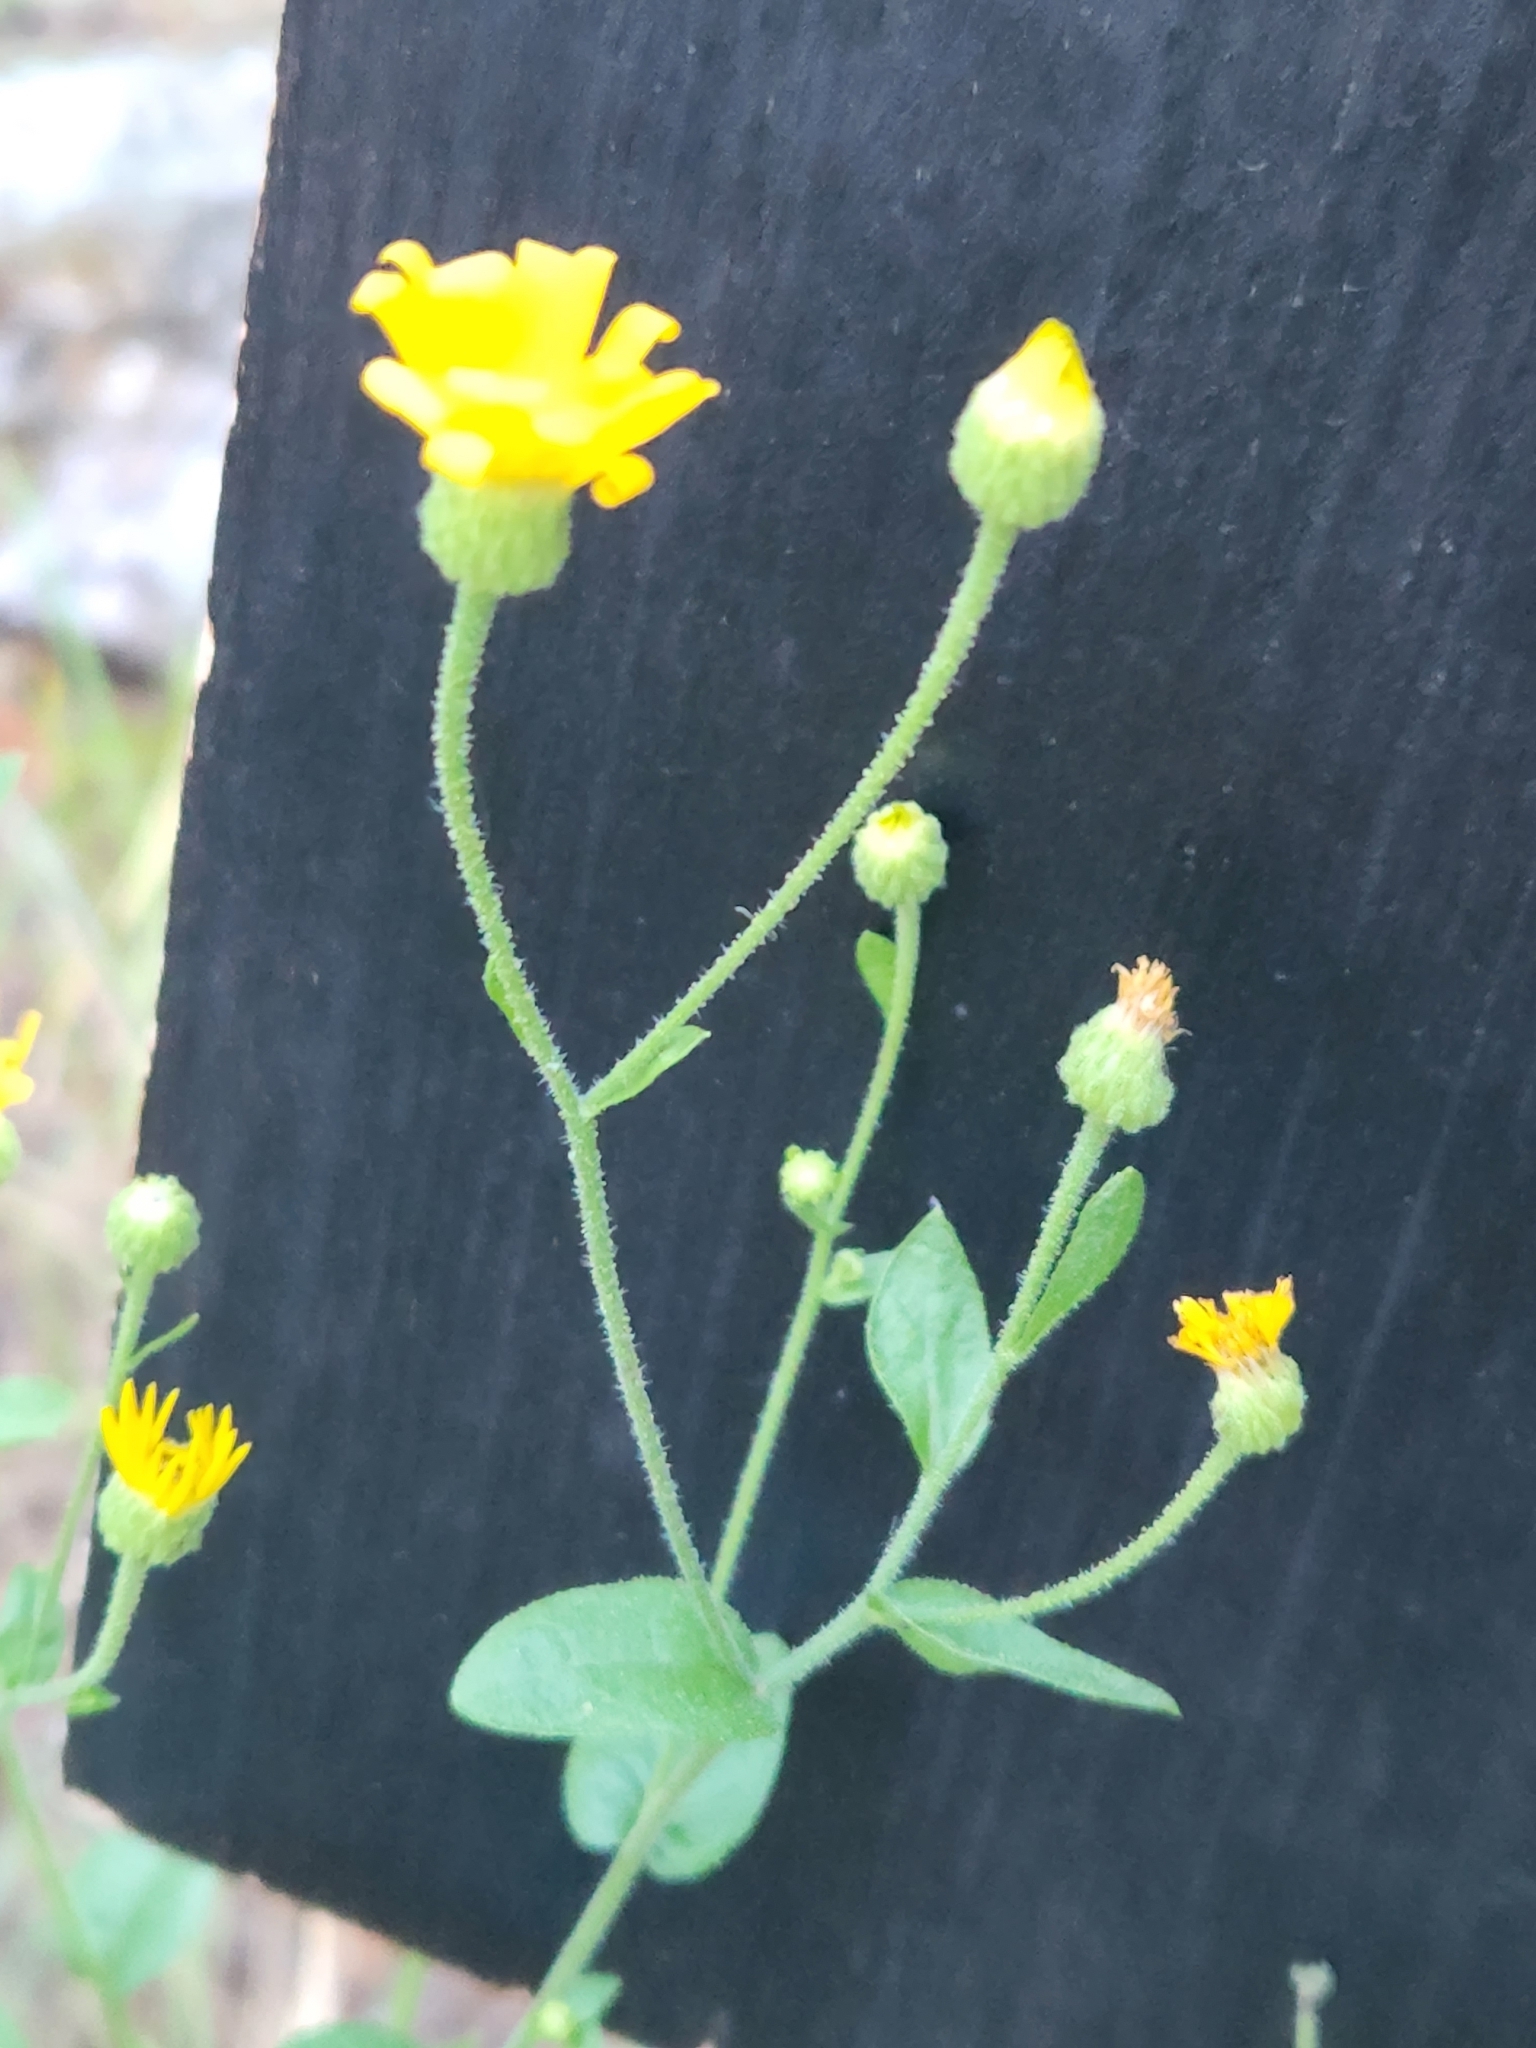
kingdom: Plantae
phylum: Tracheophyta
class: Magnoliopsida
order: Asterales
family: Asteraceae
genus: Heterotheca
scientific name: Heterotheca subaxillaris
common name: Camphorweed
